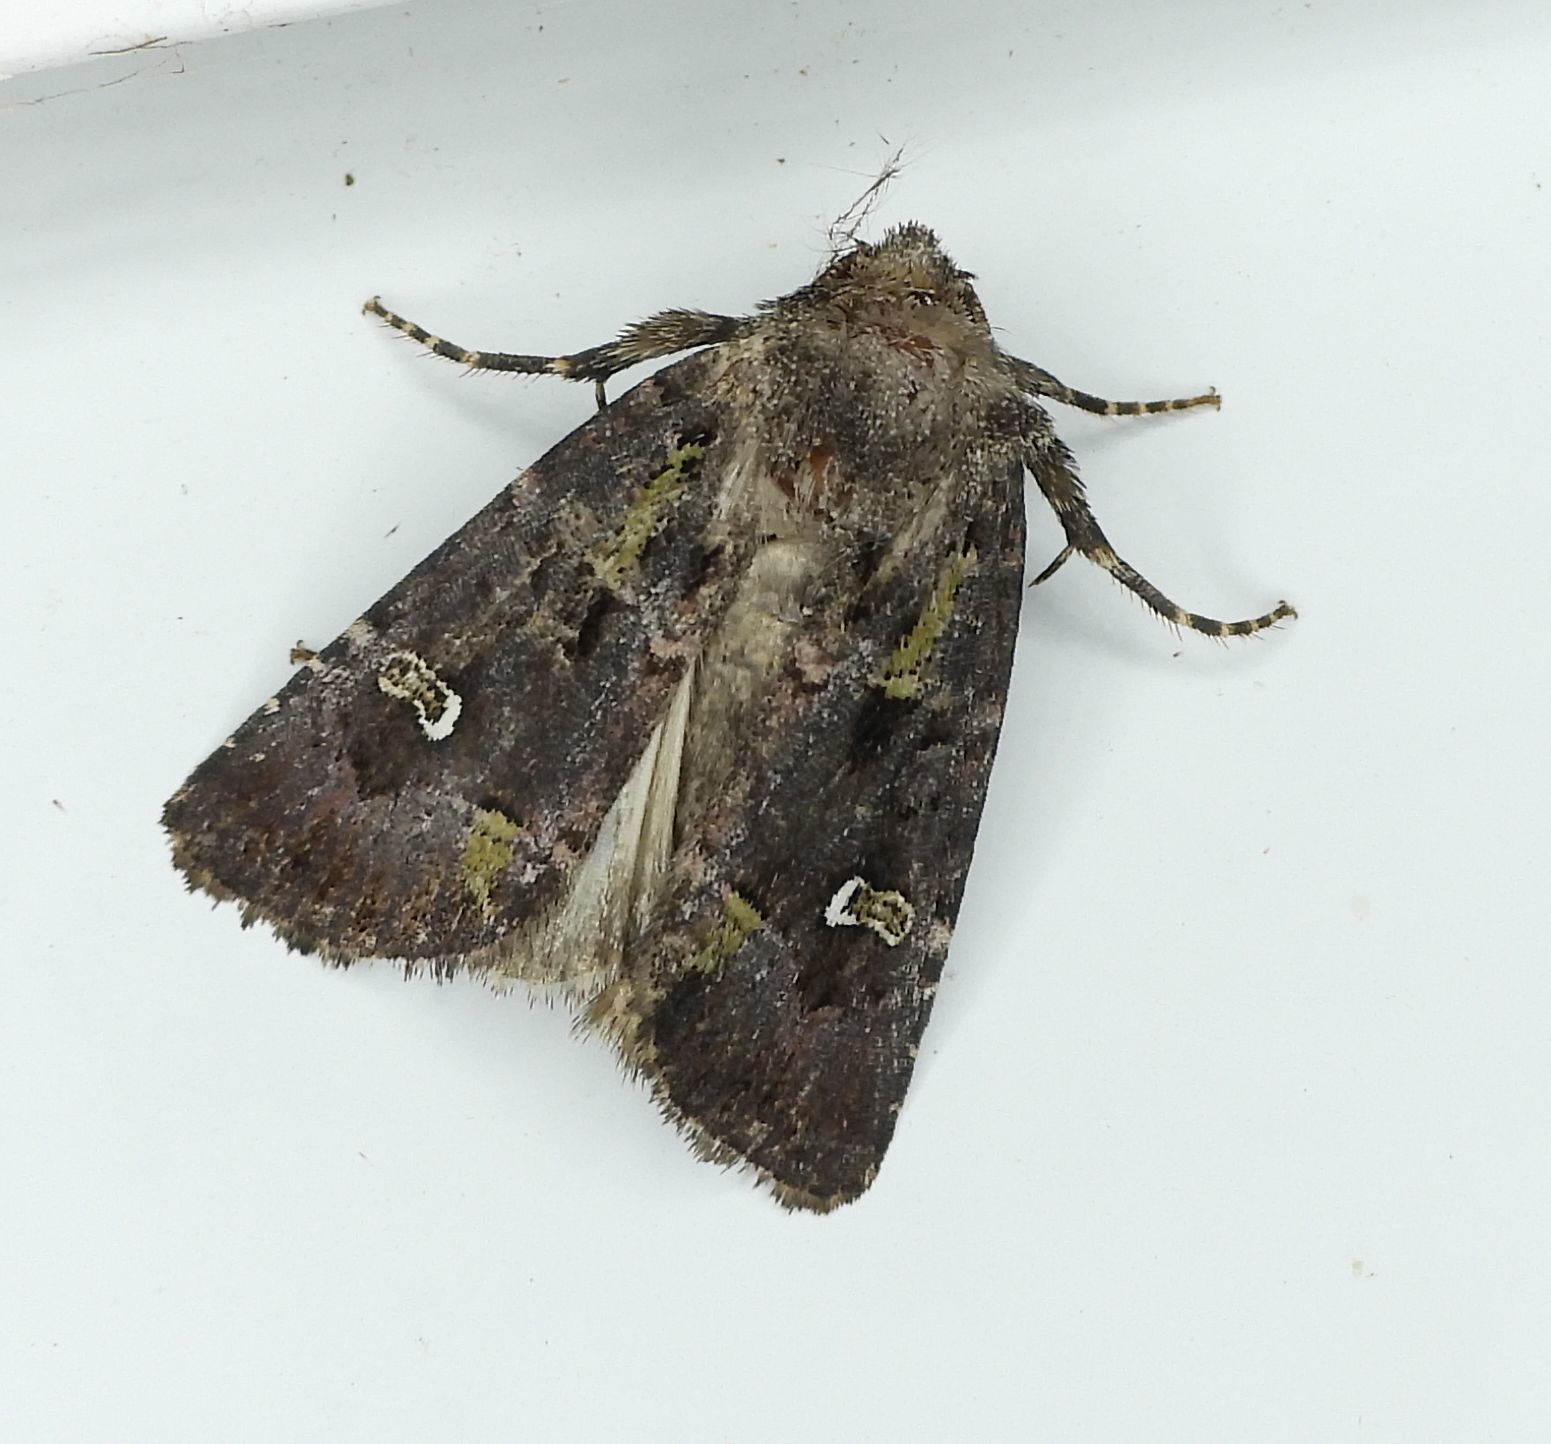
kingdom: Animalia
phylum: Arthropoda
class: Insecta
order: Lepidoptera
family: Noctuidae
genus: Lacinipolia
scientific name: Lacinipolia renigera
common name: Kidney-spotted minor
